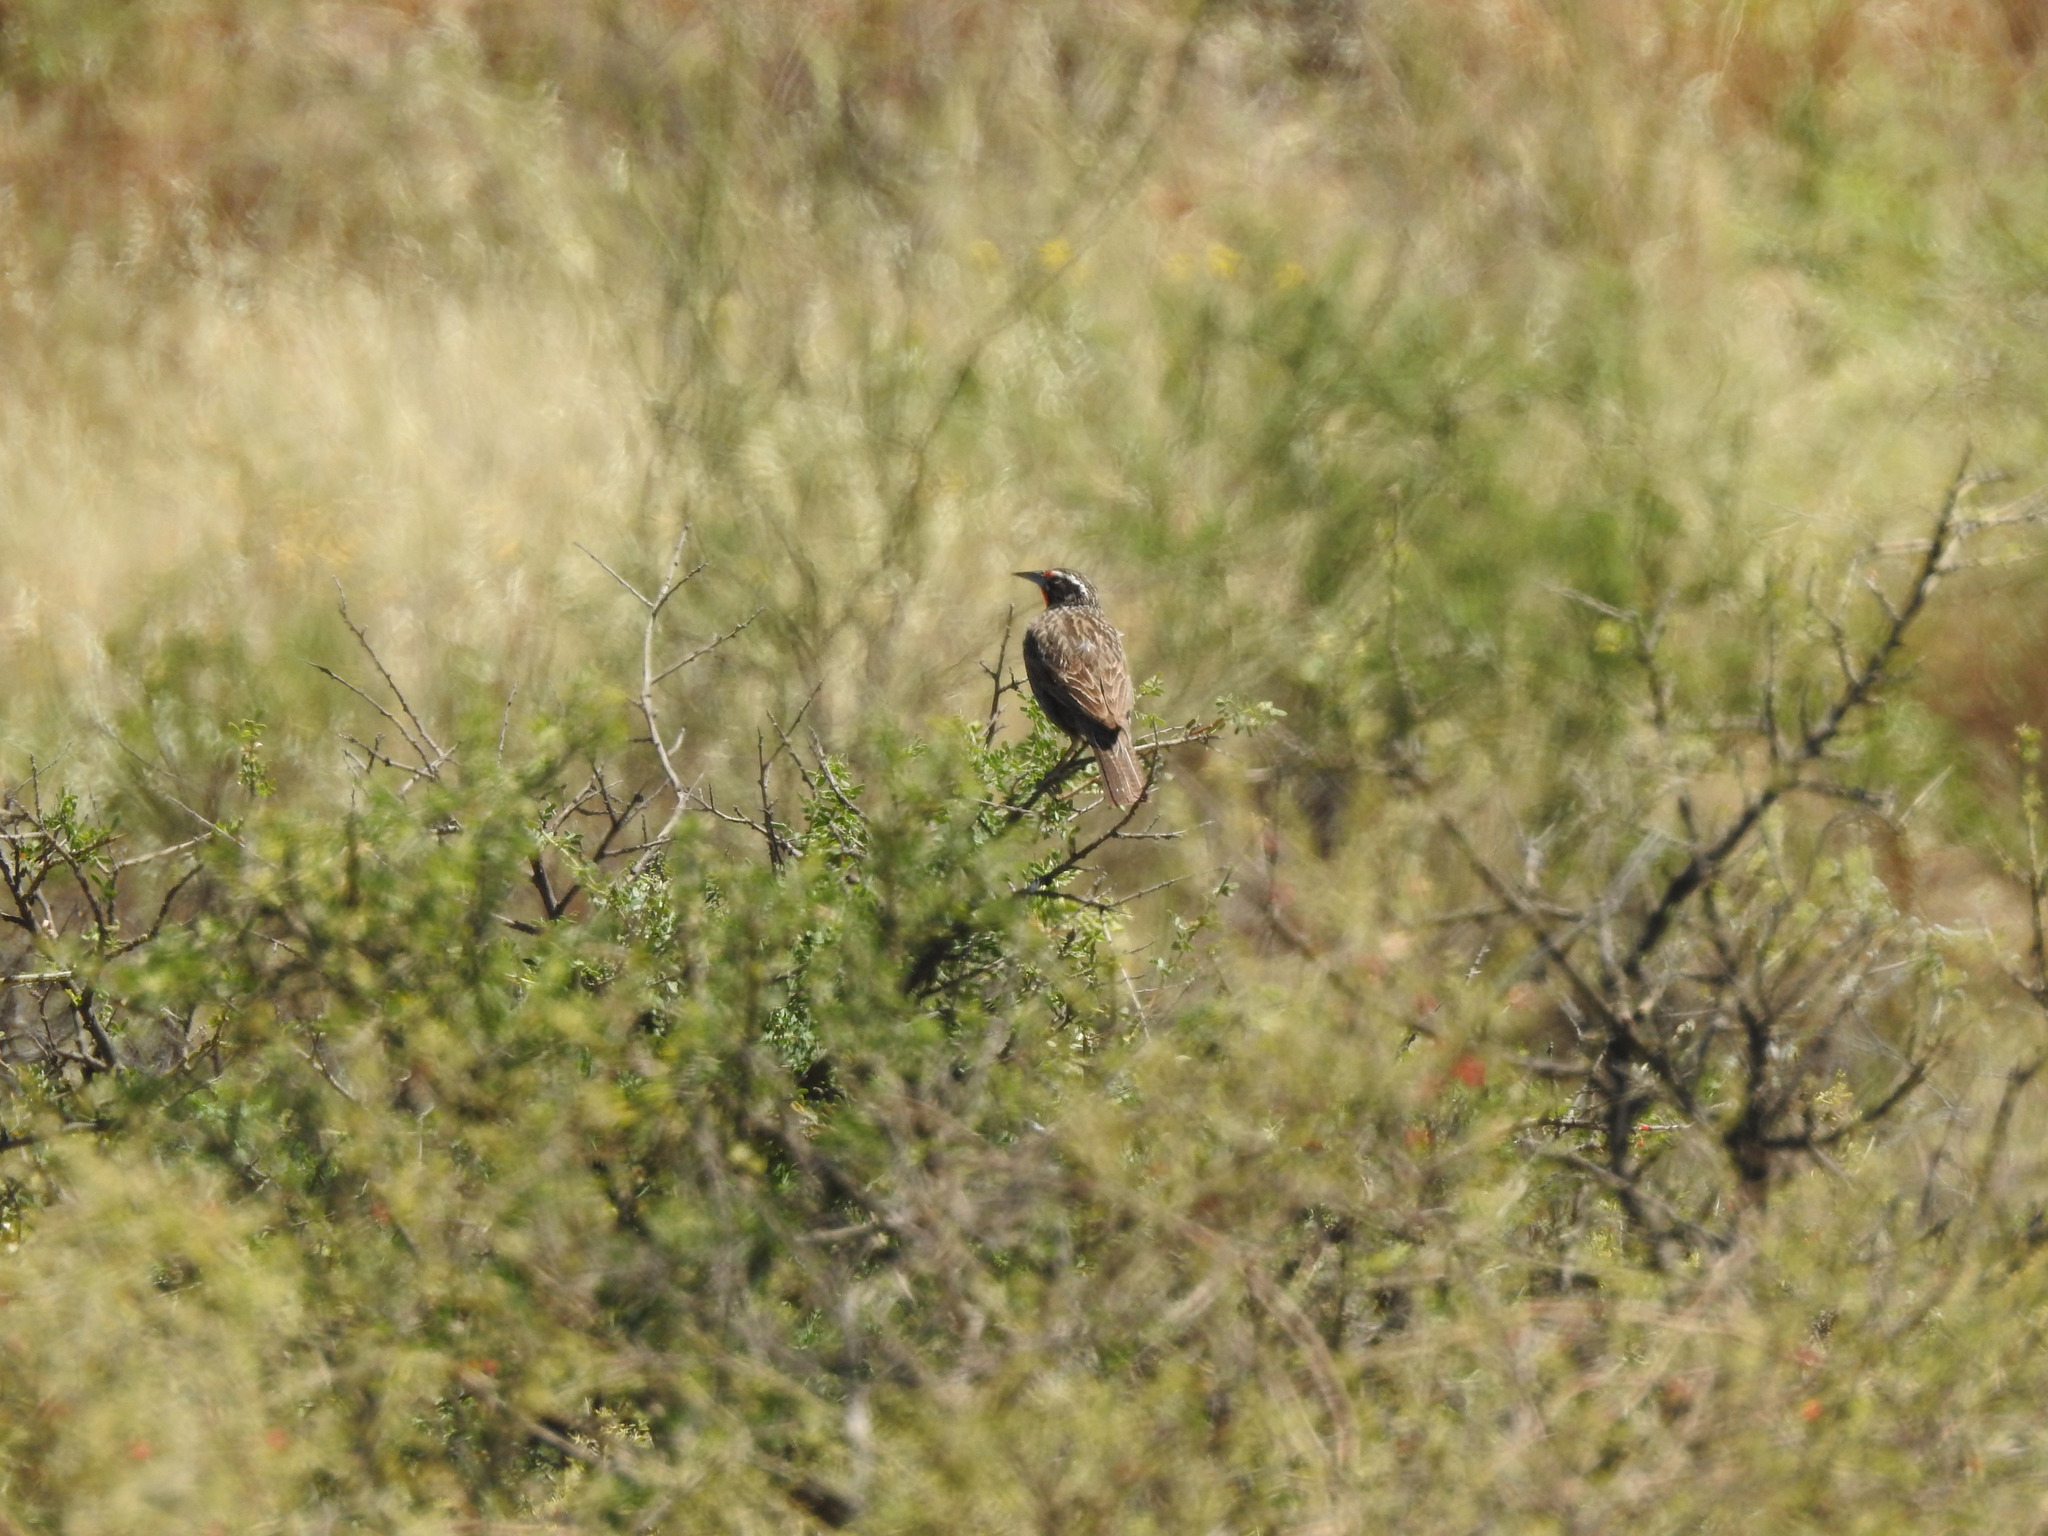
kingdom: Animalia
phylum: Chordata
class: Aves
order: Passeriformes
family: Icteridae
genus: Sturnella
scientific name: Sturnella loyca
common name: Long-tailed meadowlark
